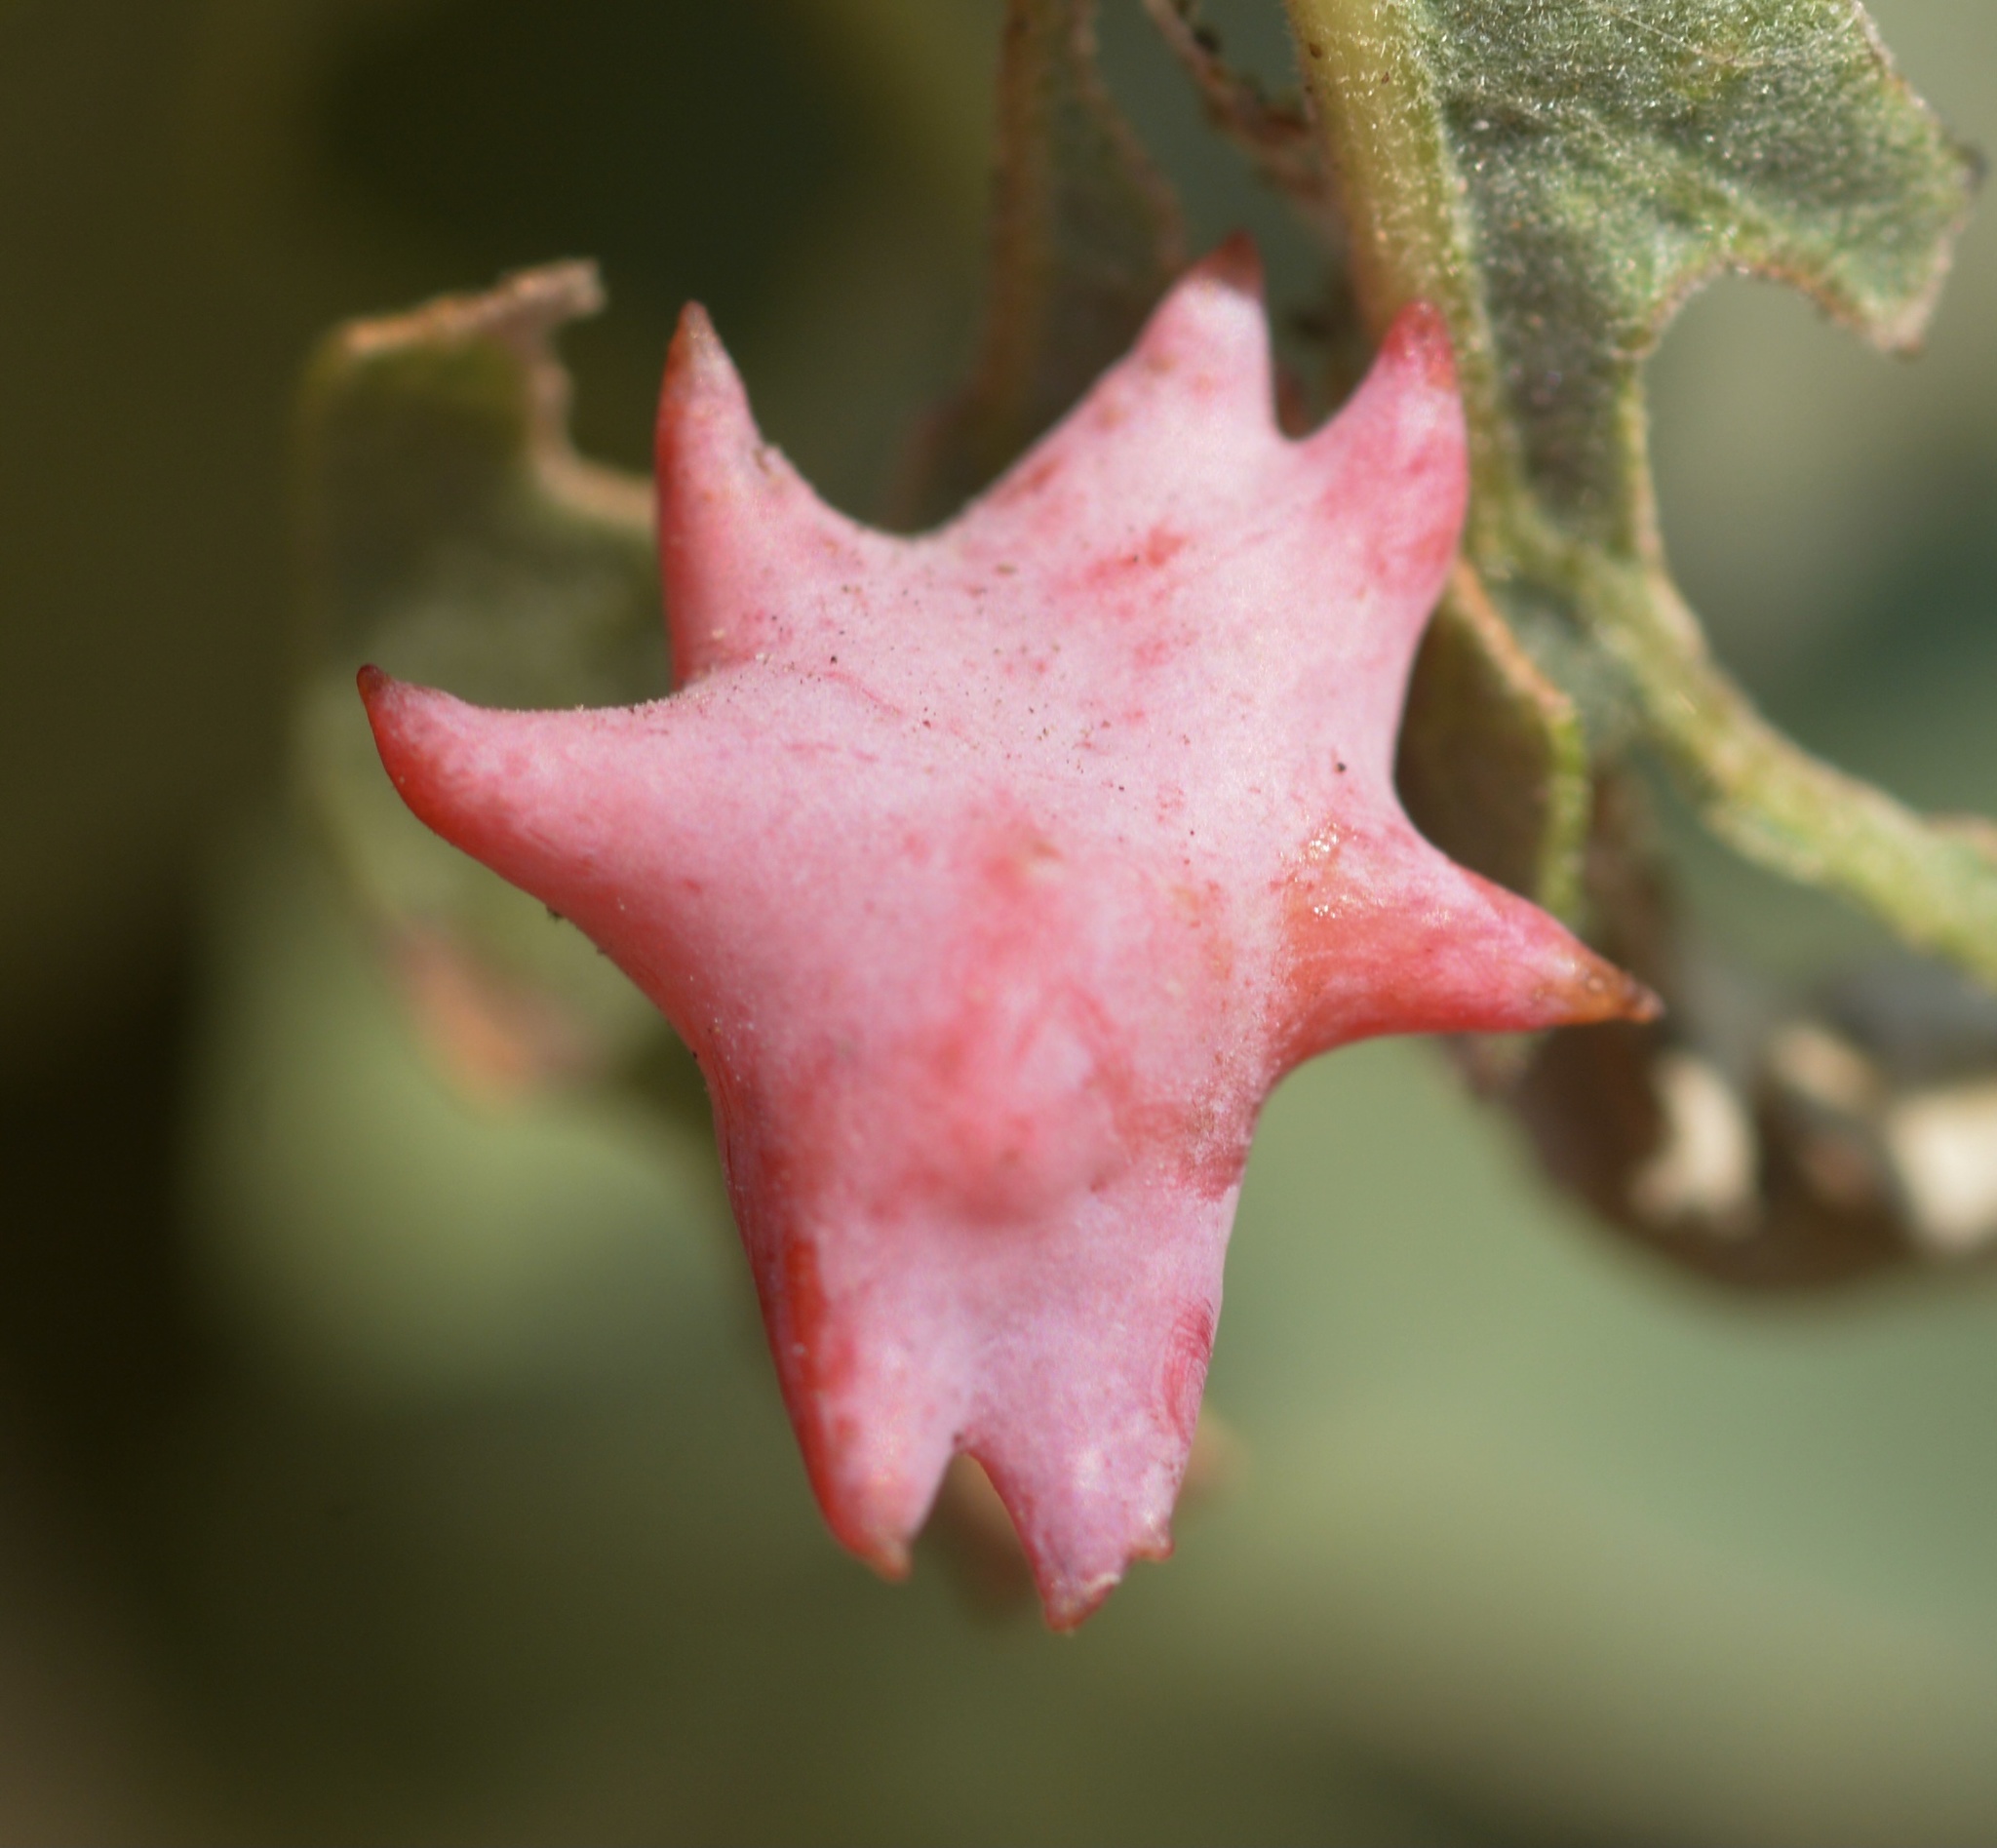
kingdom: Animalia
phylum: Arthropoda
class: Insecta
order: Hymenoptera
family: Cynipidae
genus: Cynips
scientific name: Cynips douglasi
